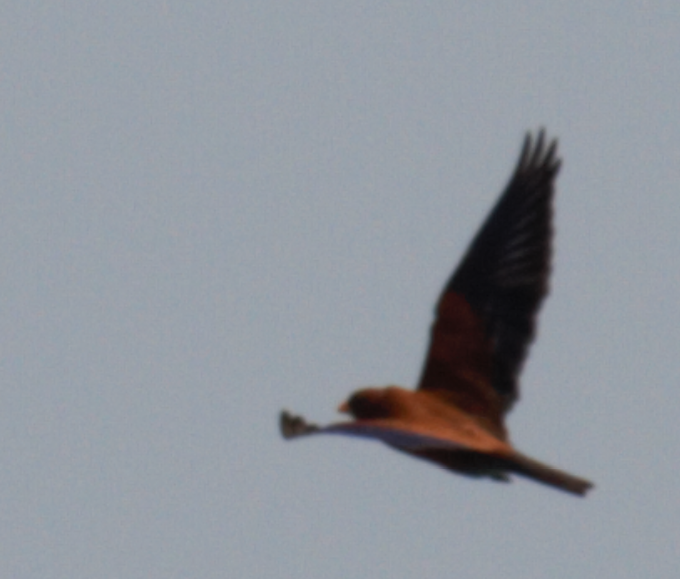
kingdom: Animalia
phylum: Chordata
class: Aves
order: Coraciiformes
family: Coraciidae
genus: Eurystomus
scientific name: Eurystomus glaucurus
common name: Broad-billed roller
